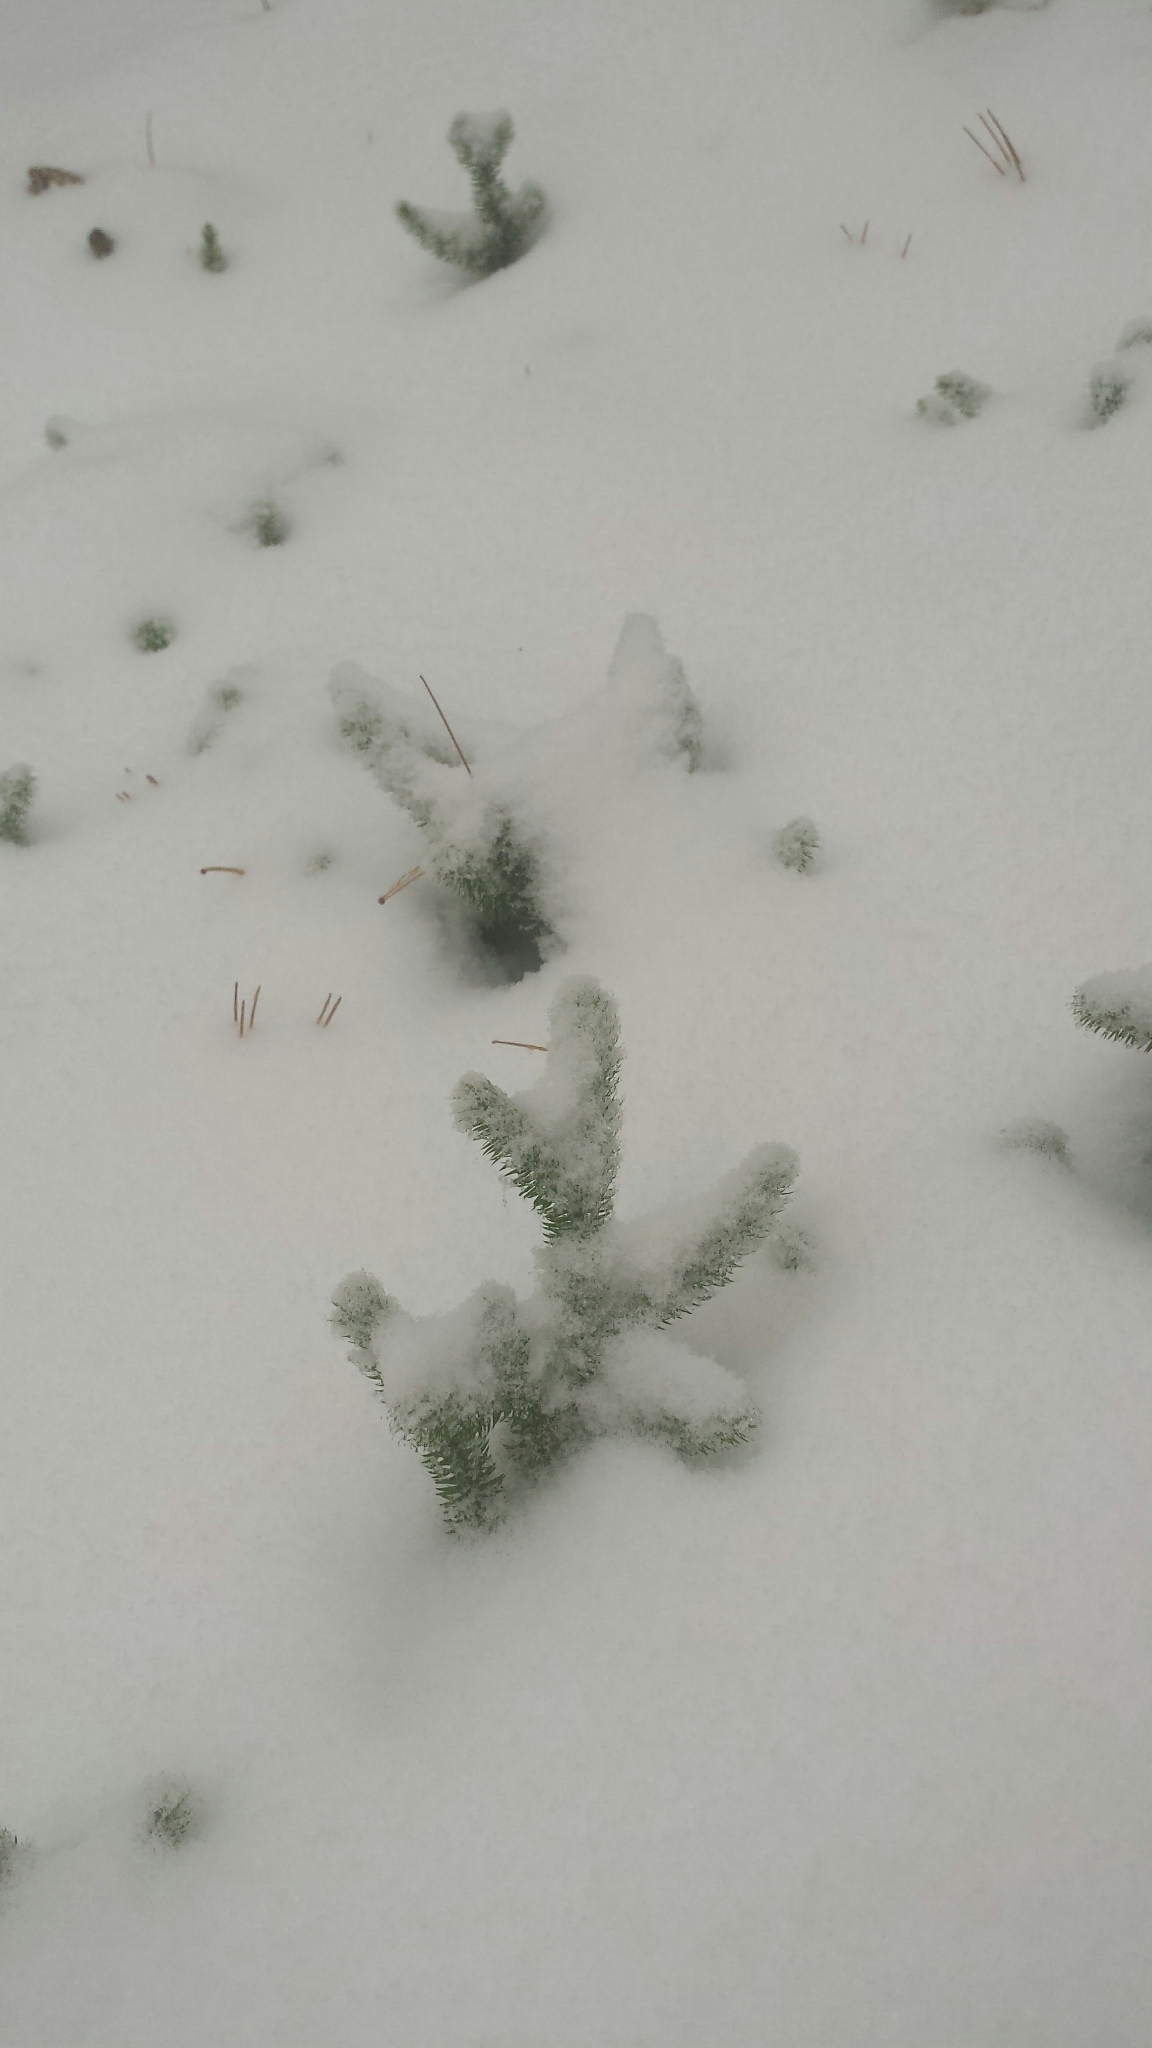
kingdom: Plantae
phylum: Tracheophyta
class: Lycopodiopsida
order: Lycopodiales
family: Lycopodiaceae
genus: Lycopodium
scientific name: Lycopodium clavatum
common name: Stag's-horn clubmoss
